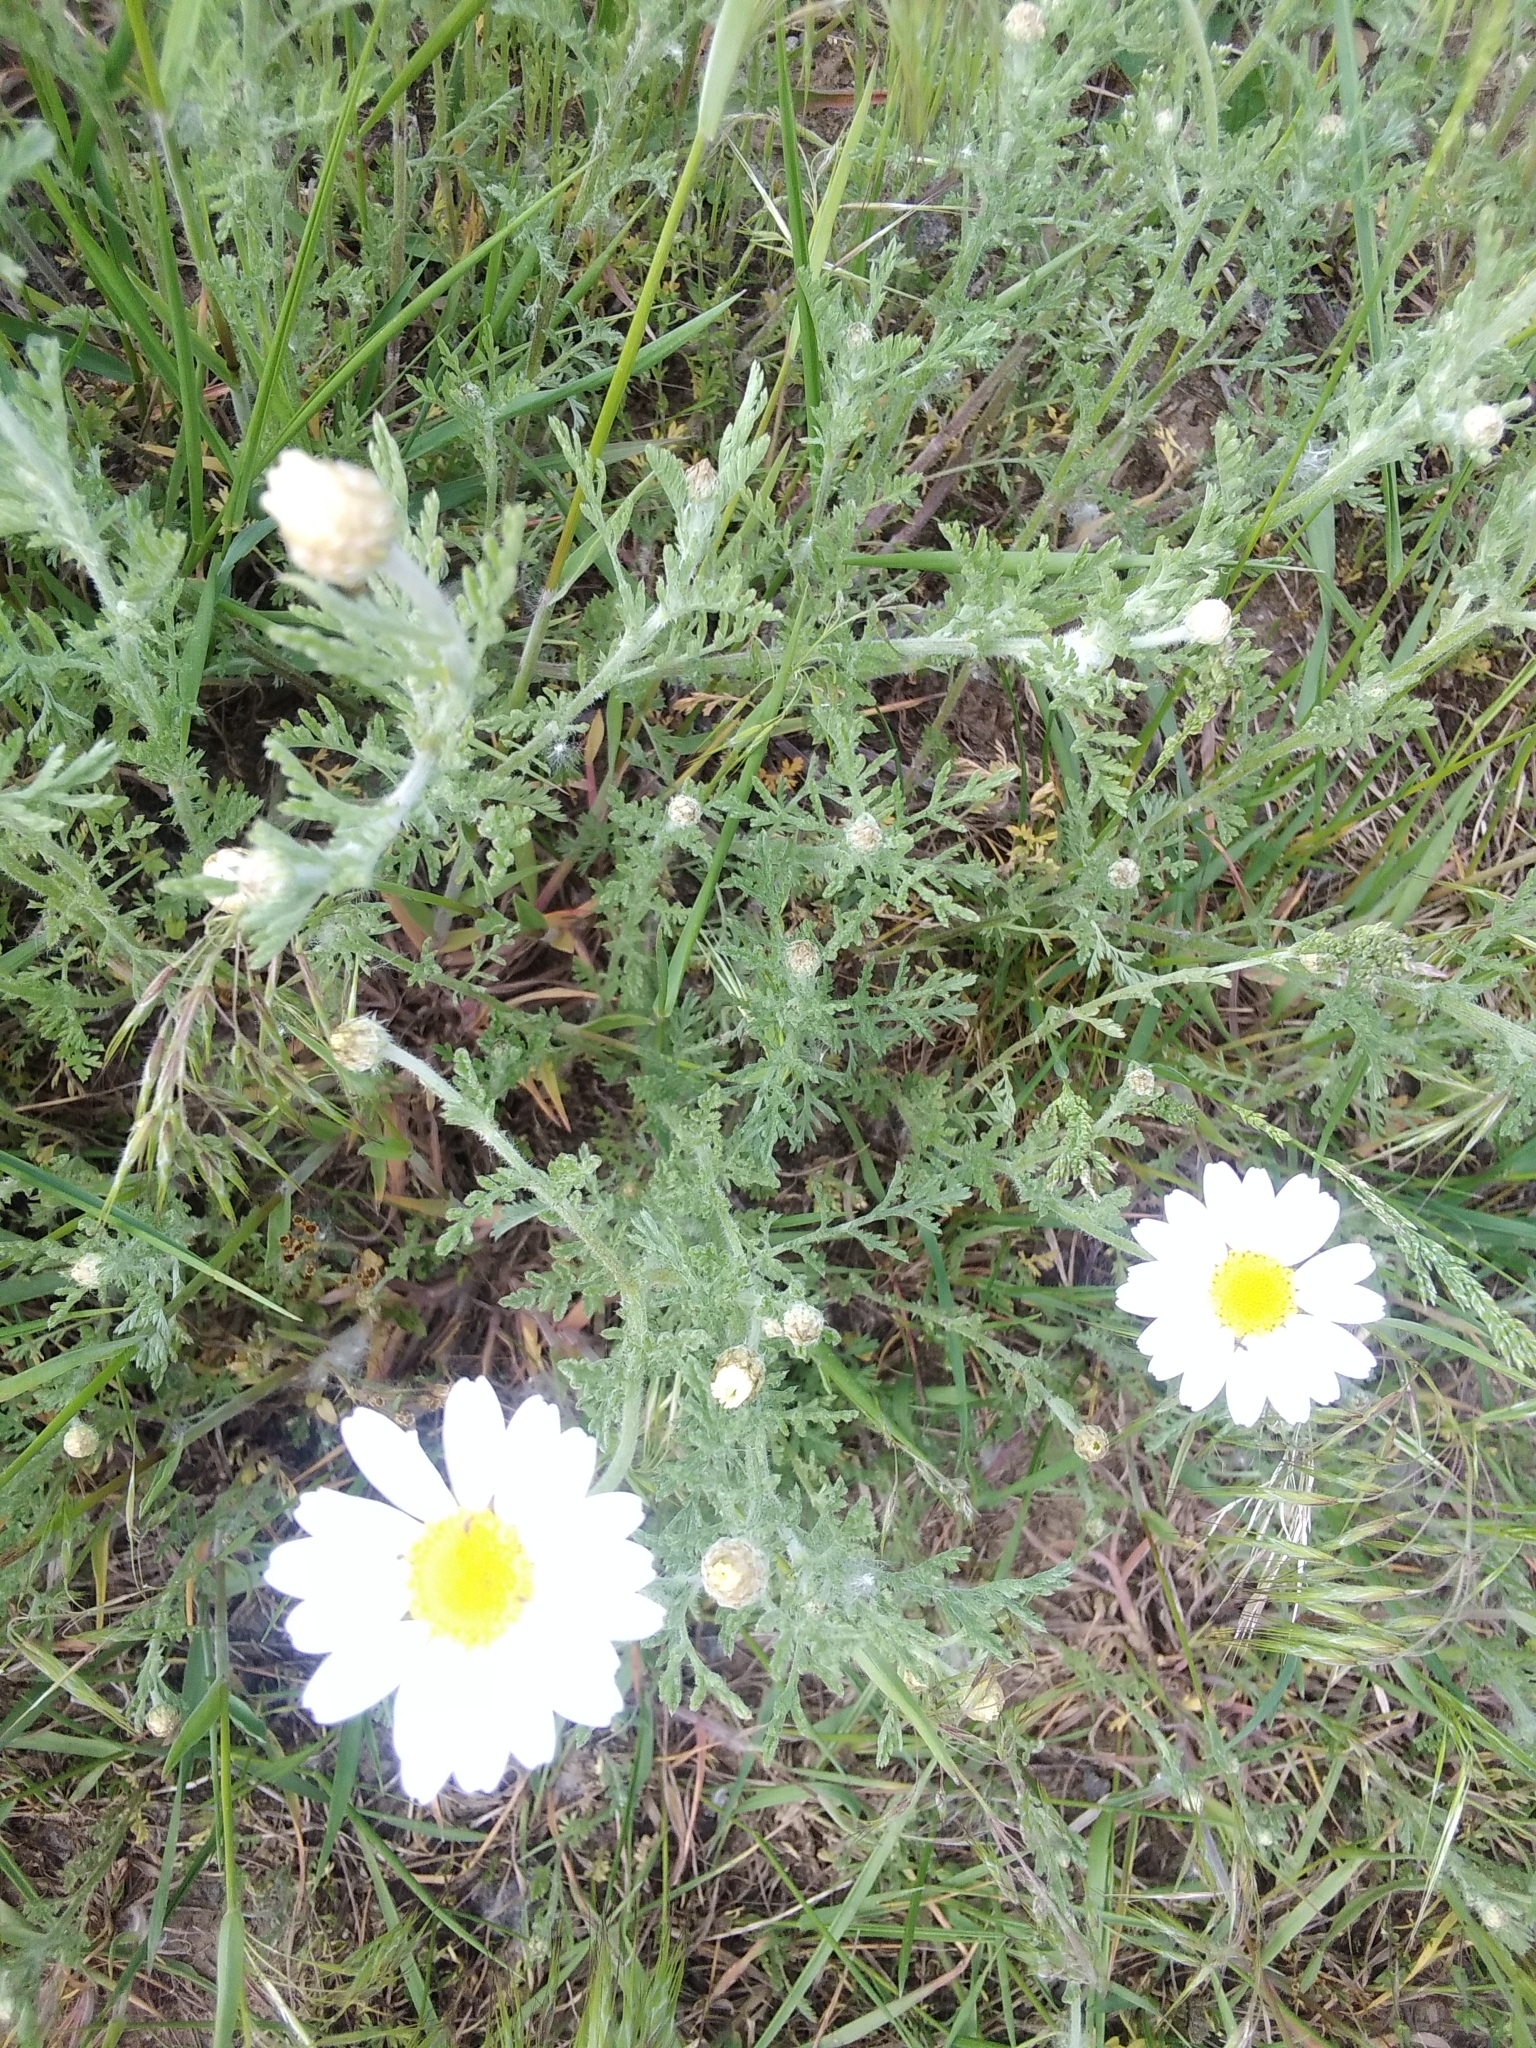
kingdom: Plantae
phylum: Tracheophyta
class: Magnoliopsida
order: Asterales
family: Asteraceae
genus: Anthemis
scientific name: Anthemis ruthenica
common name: Eastern chamomile
